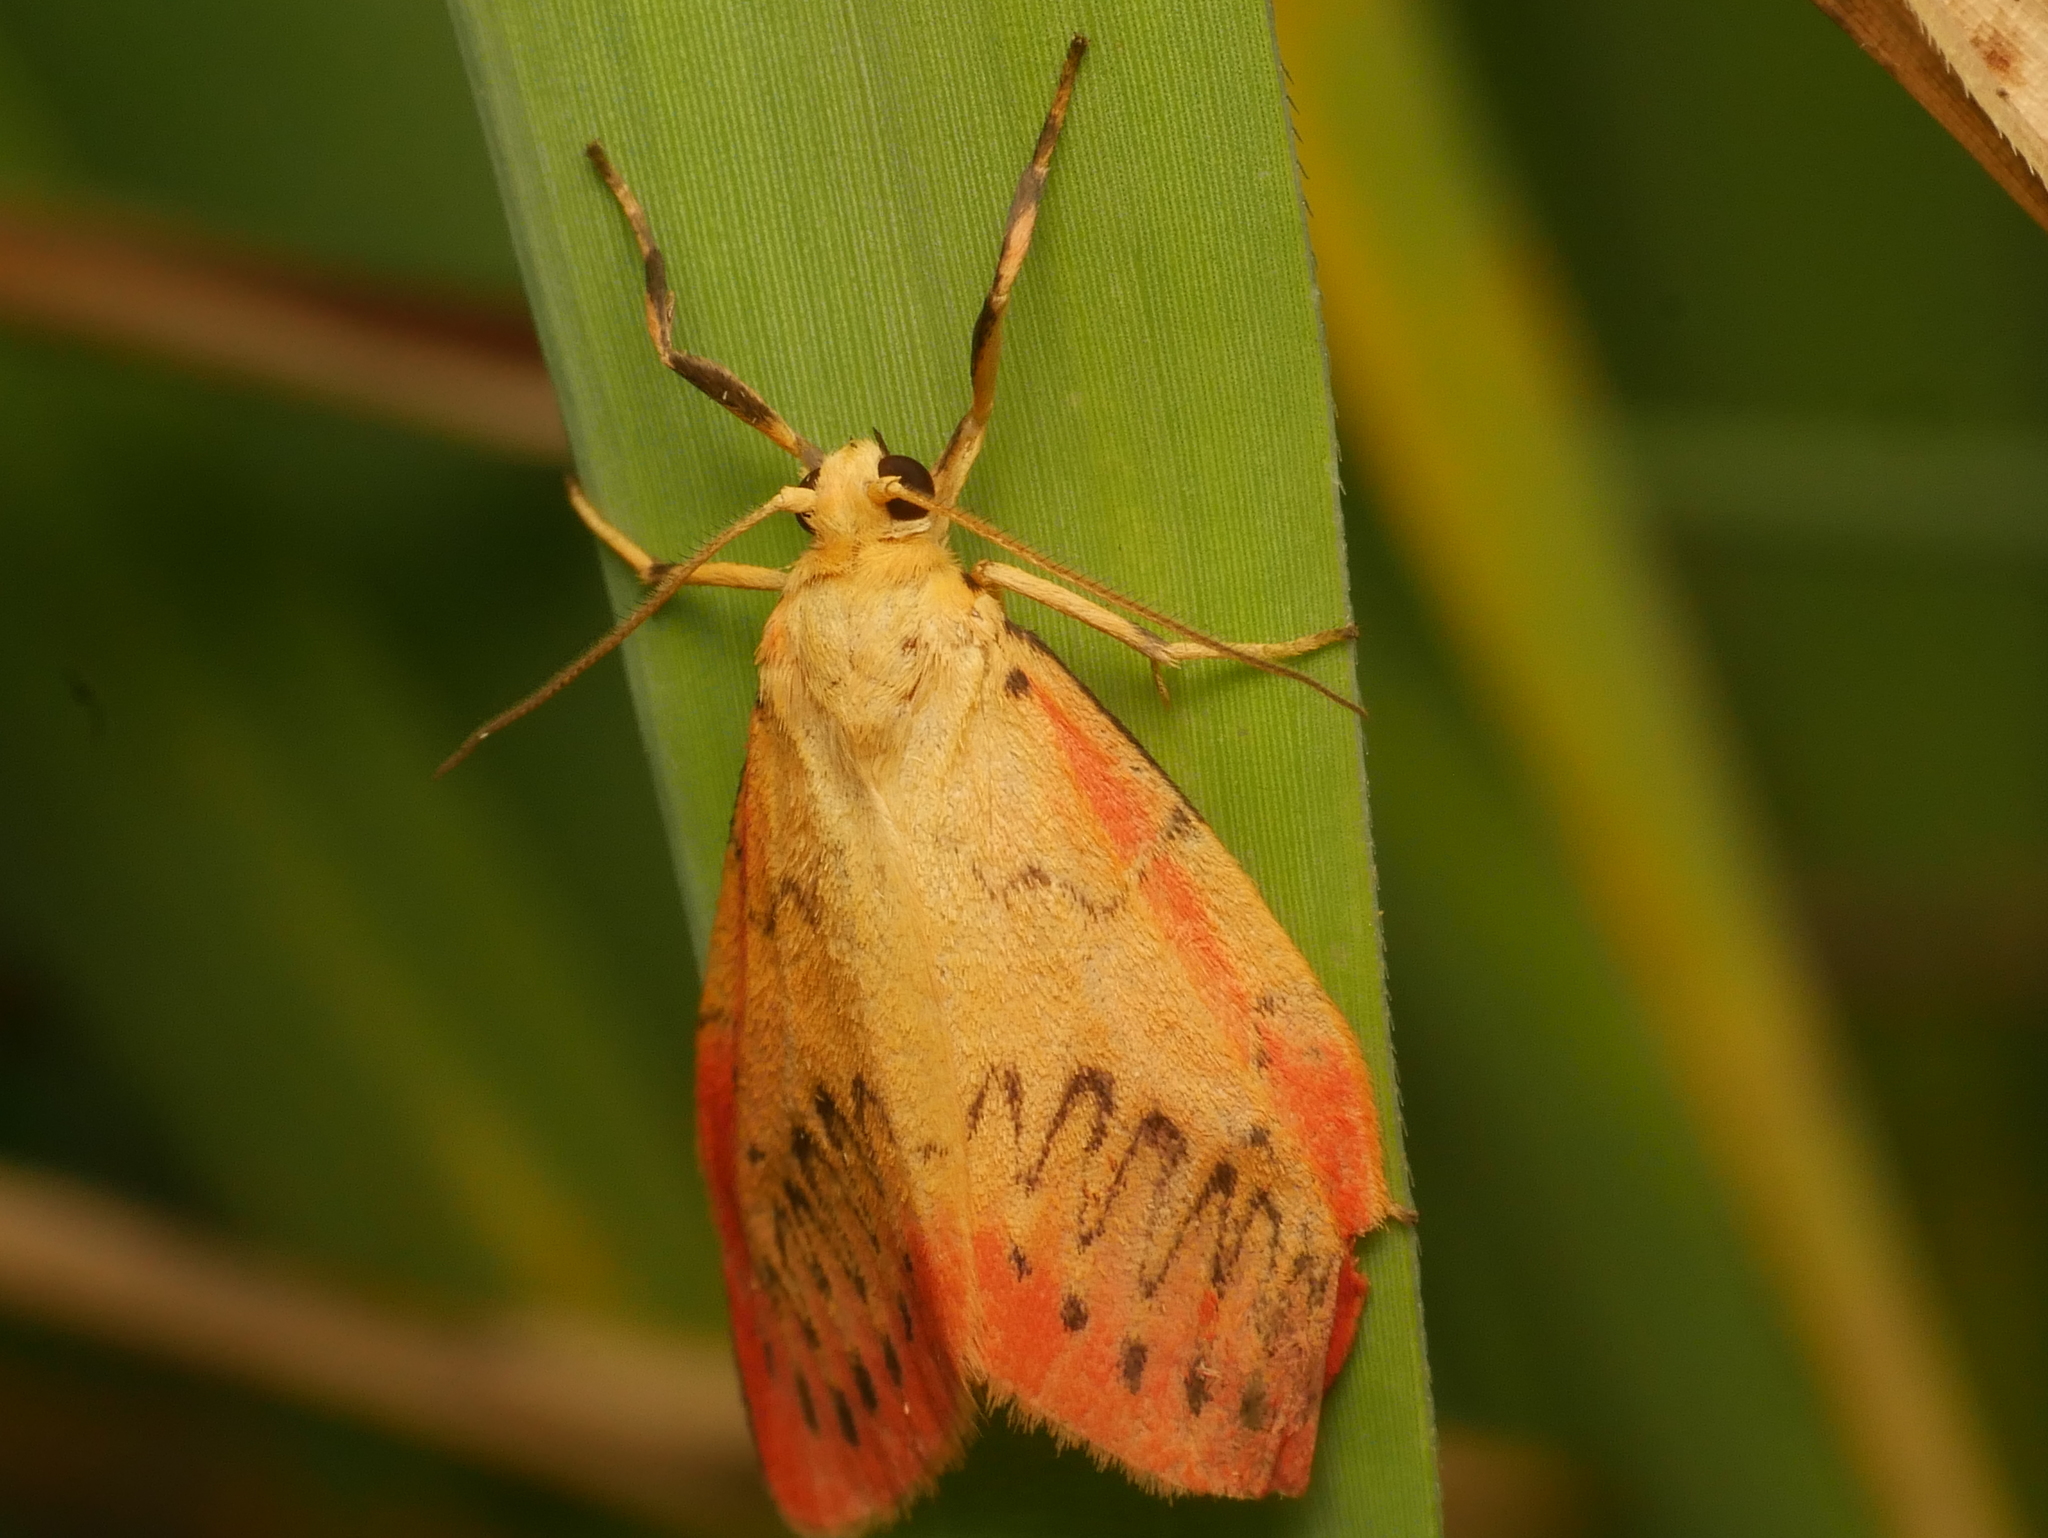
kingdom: Animalia
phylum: Arthropoda
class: Insecta
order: Lepidoptera
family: Erebidae
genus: Miltochrista
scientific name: Miltochrista miniata
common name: Rosy footman
